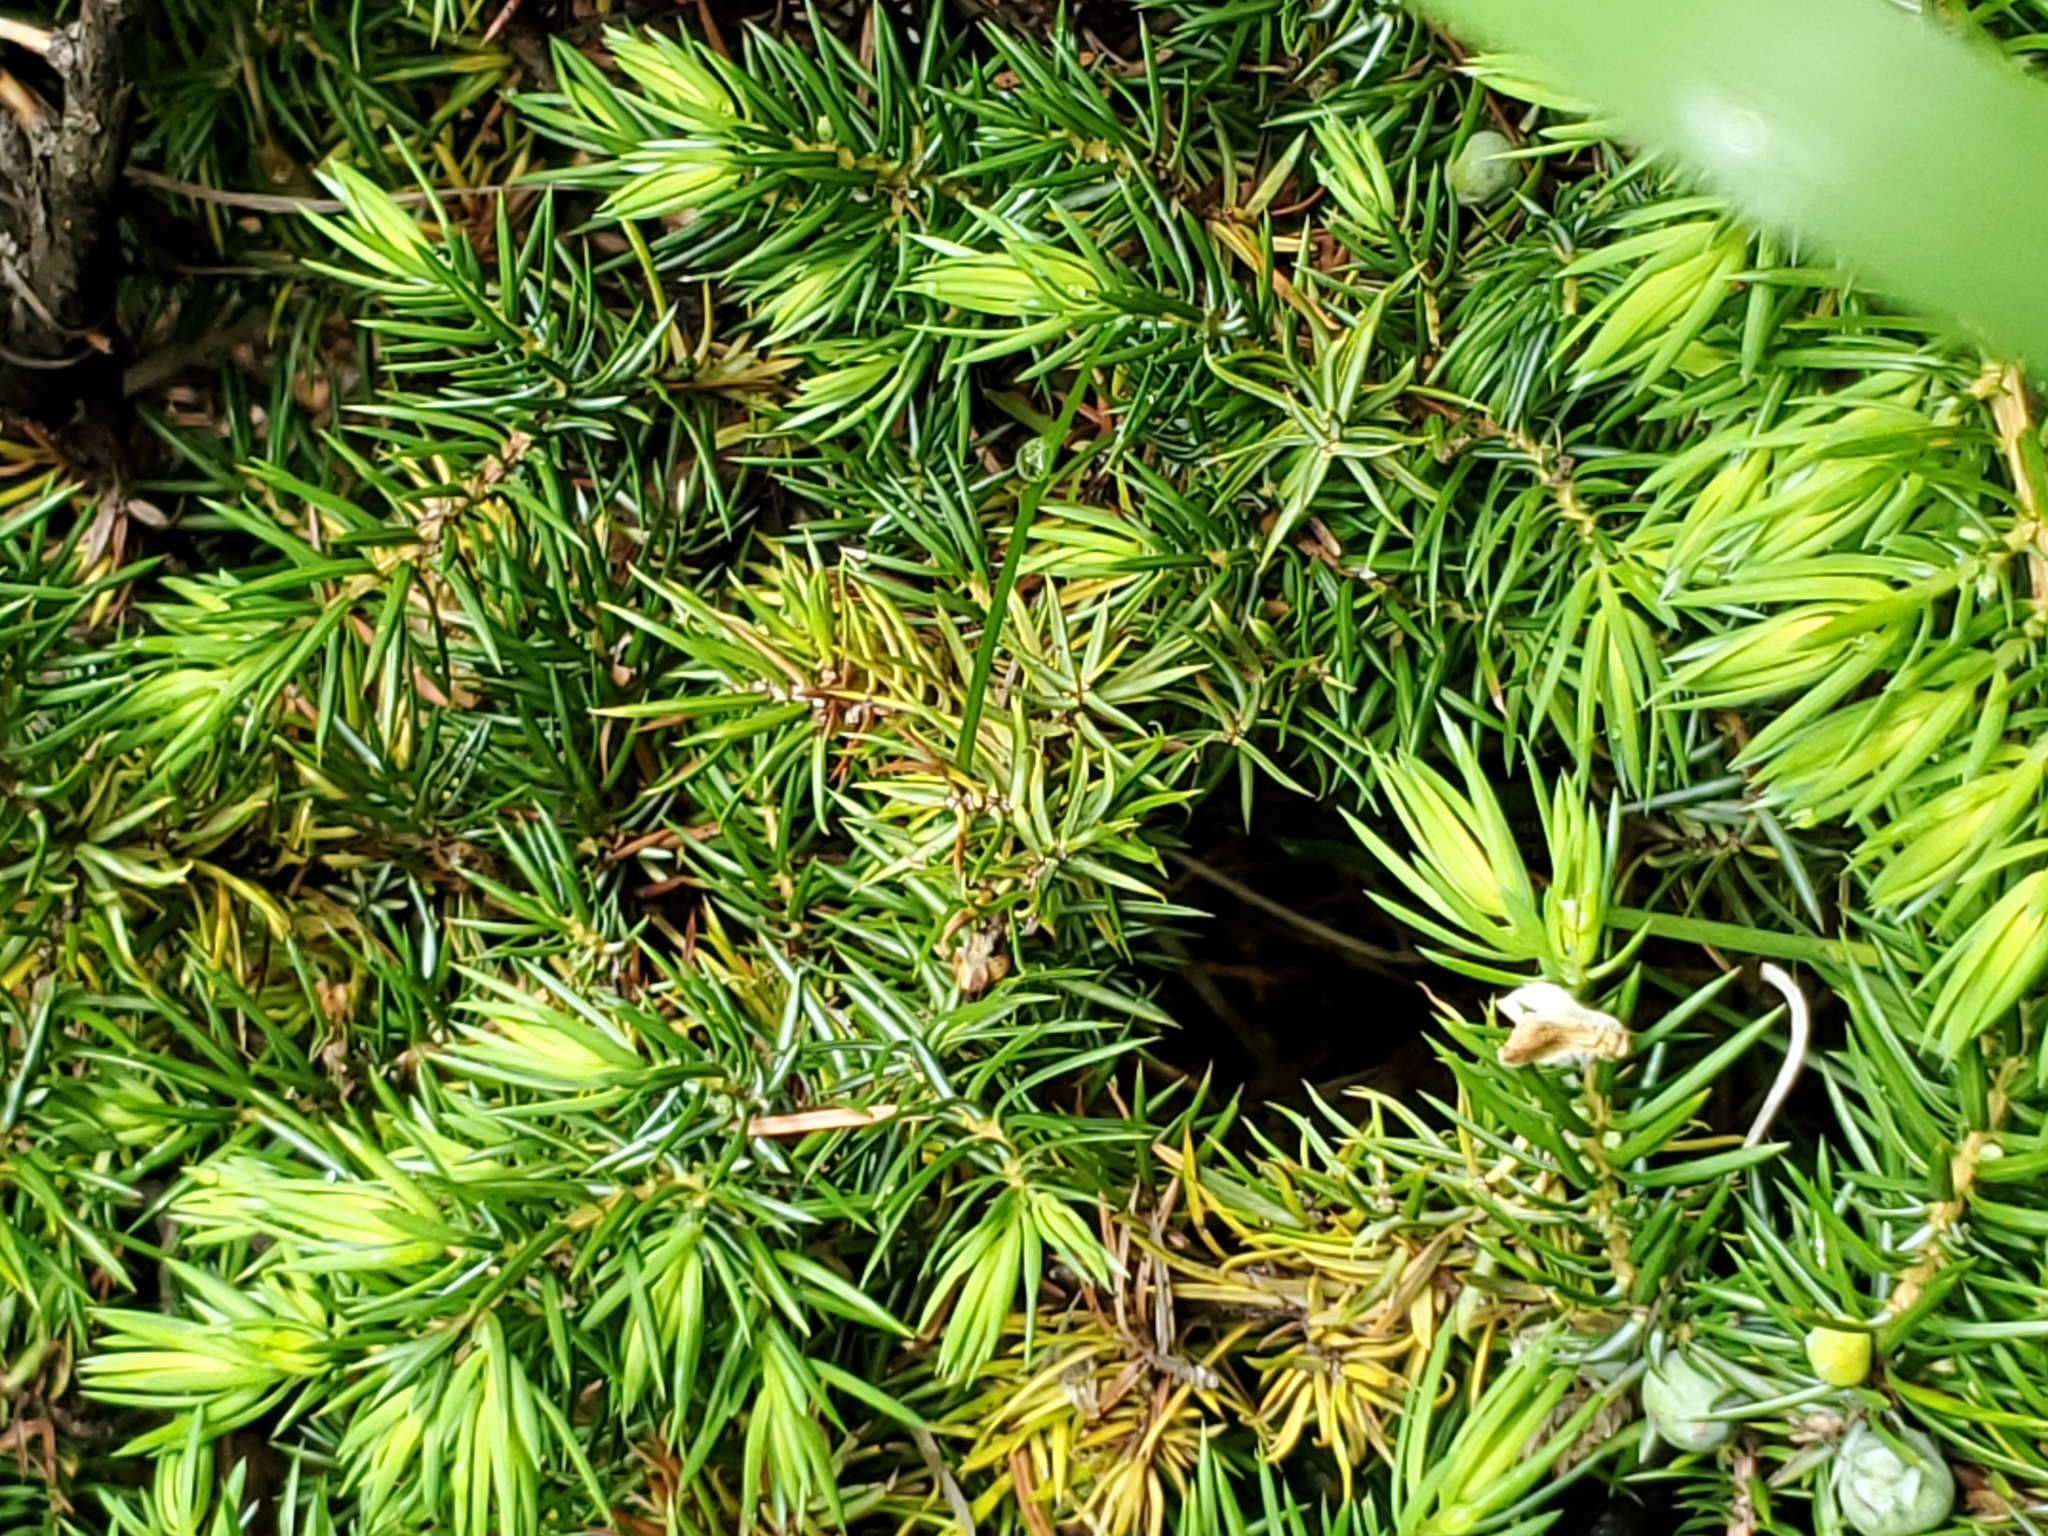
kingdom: Plantae
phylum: Tracheophyta
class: Pinopsida
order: Pinales
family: Cupressaceae
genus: Juniperus
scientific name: Juniperus communis
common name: Common juniper
